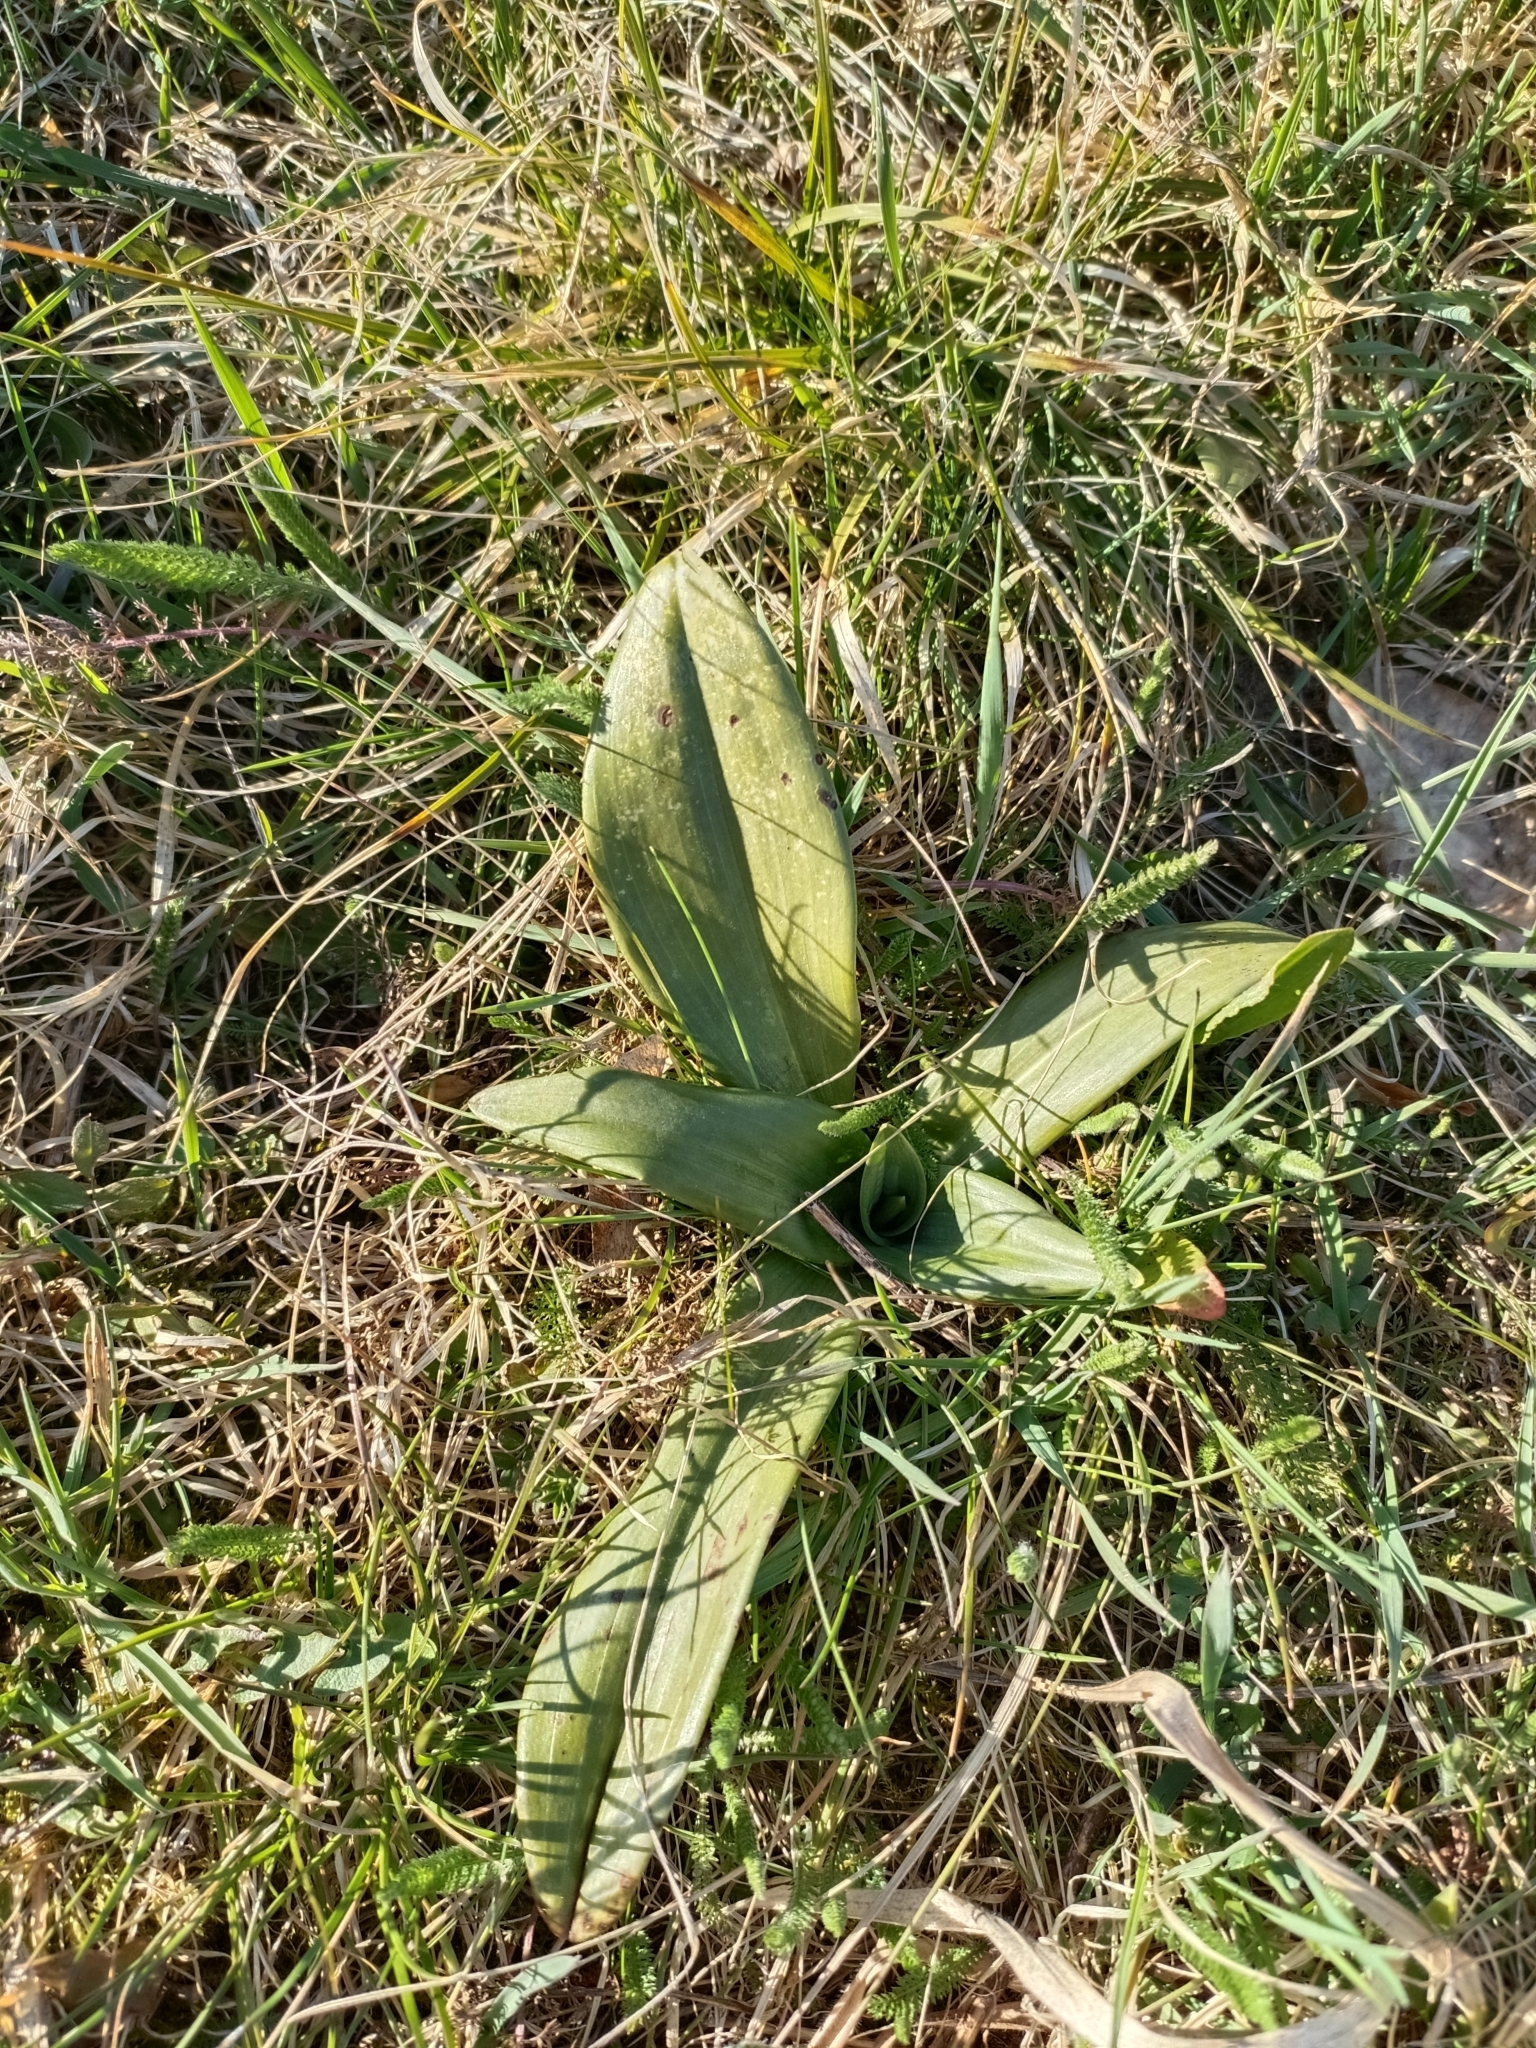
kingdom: Plantae
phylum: Tracheophyta
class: Liliopsida
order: Asparagales
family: Orchidaceae
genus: Himantoglossum
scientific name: Himantoglossum adriaticum
